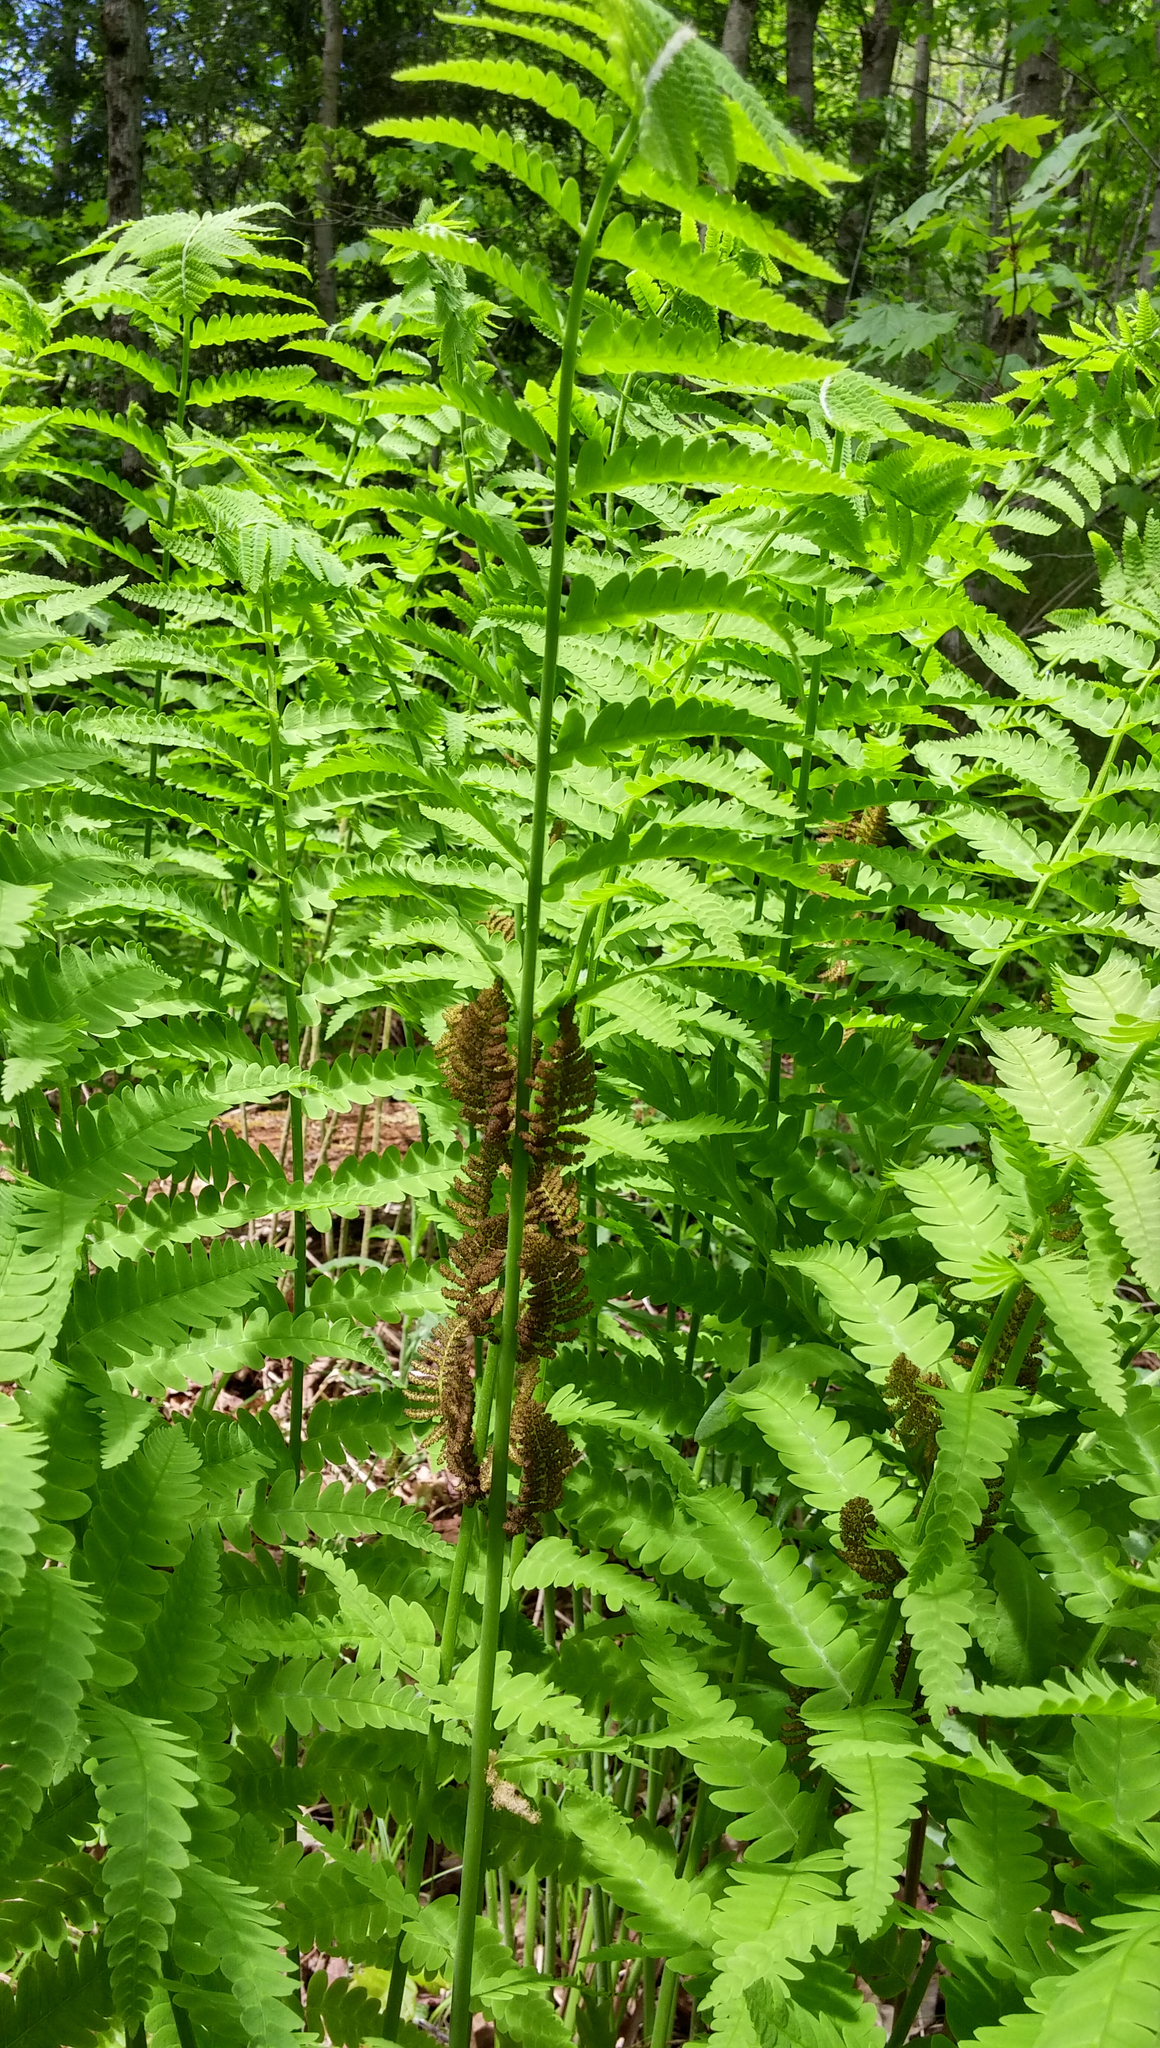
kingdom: Plantae
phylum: Tracheophyta
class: Polypodiopsida
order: Osmundales
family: Osmundaceae
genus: Claytosmunda
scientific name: Claytosmunda claytoniana
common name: Clayton's fern
